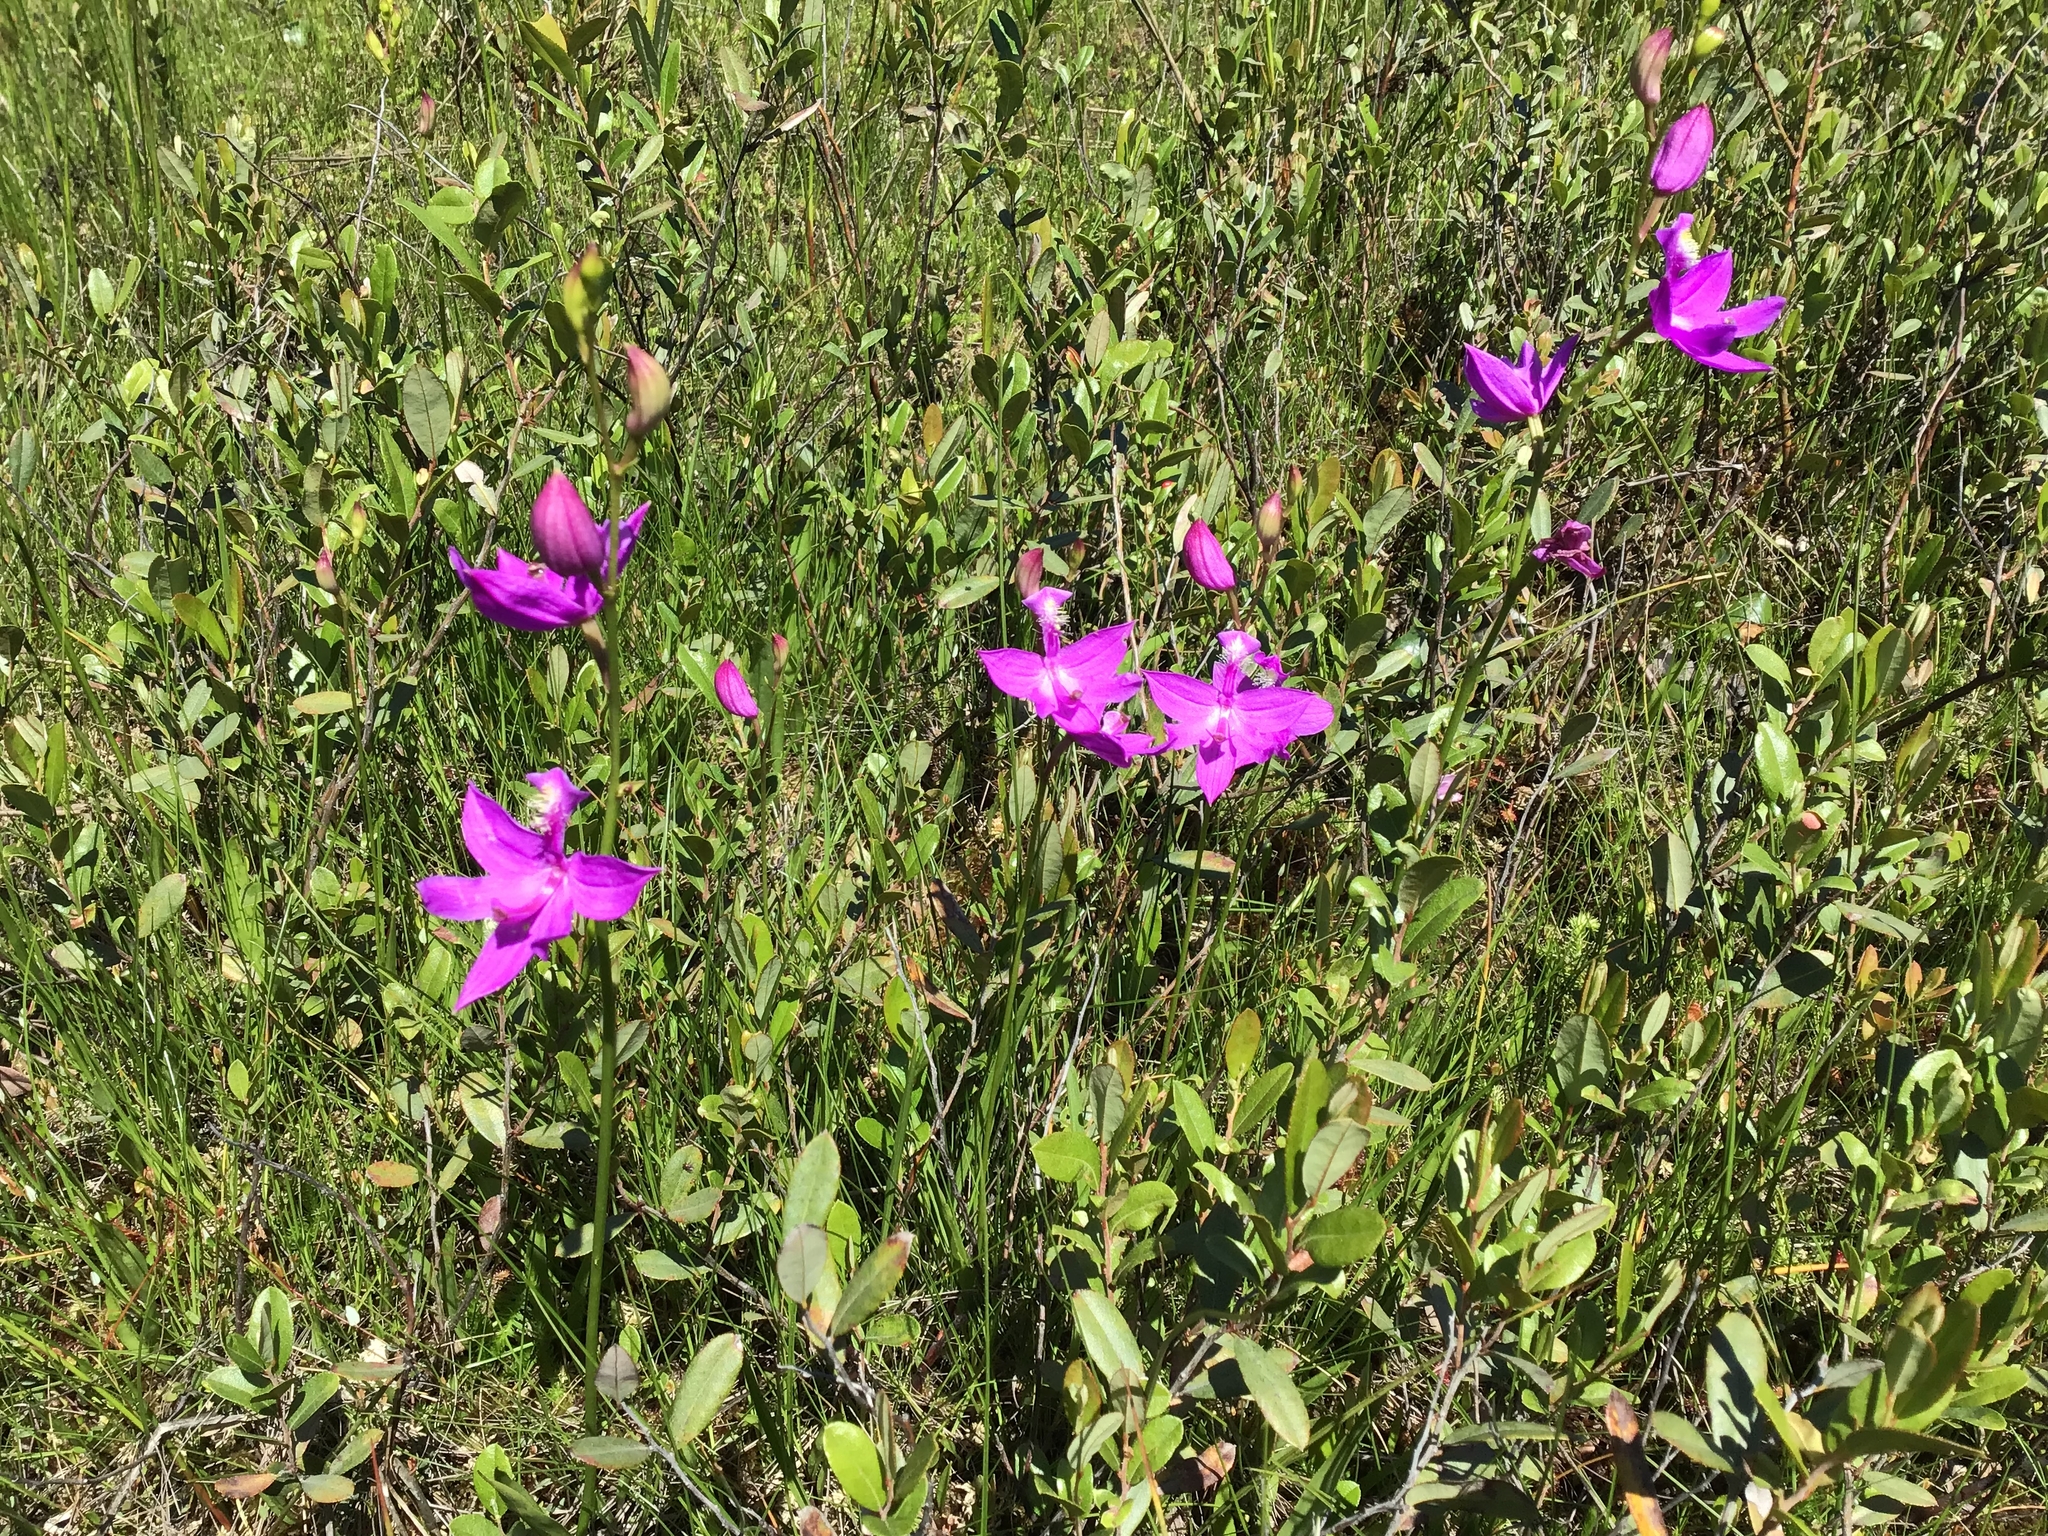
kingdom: Plantae
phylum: Tracheophyta
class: Liliopsida
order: Asparagales
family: Orchidaceae
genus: Calopogon
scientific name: Calopogon tuberosus
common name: Grass-pink
